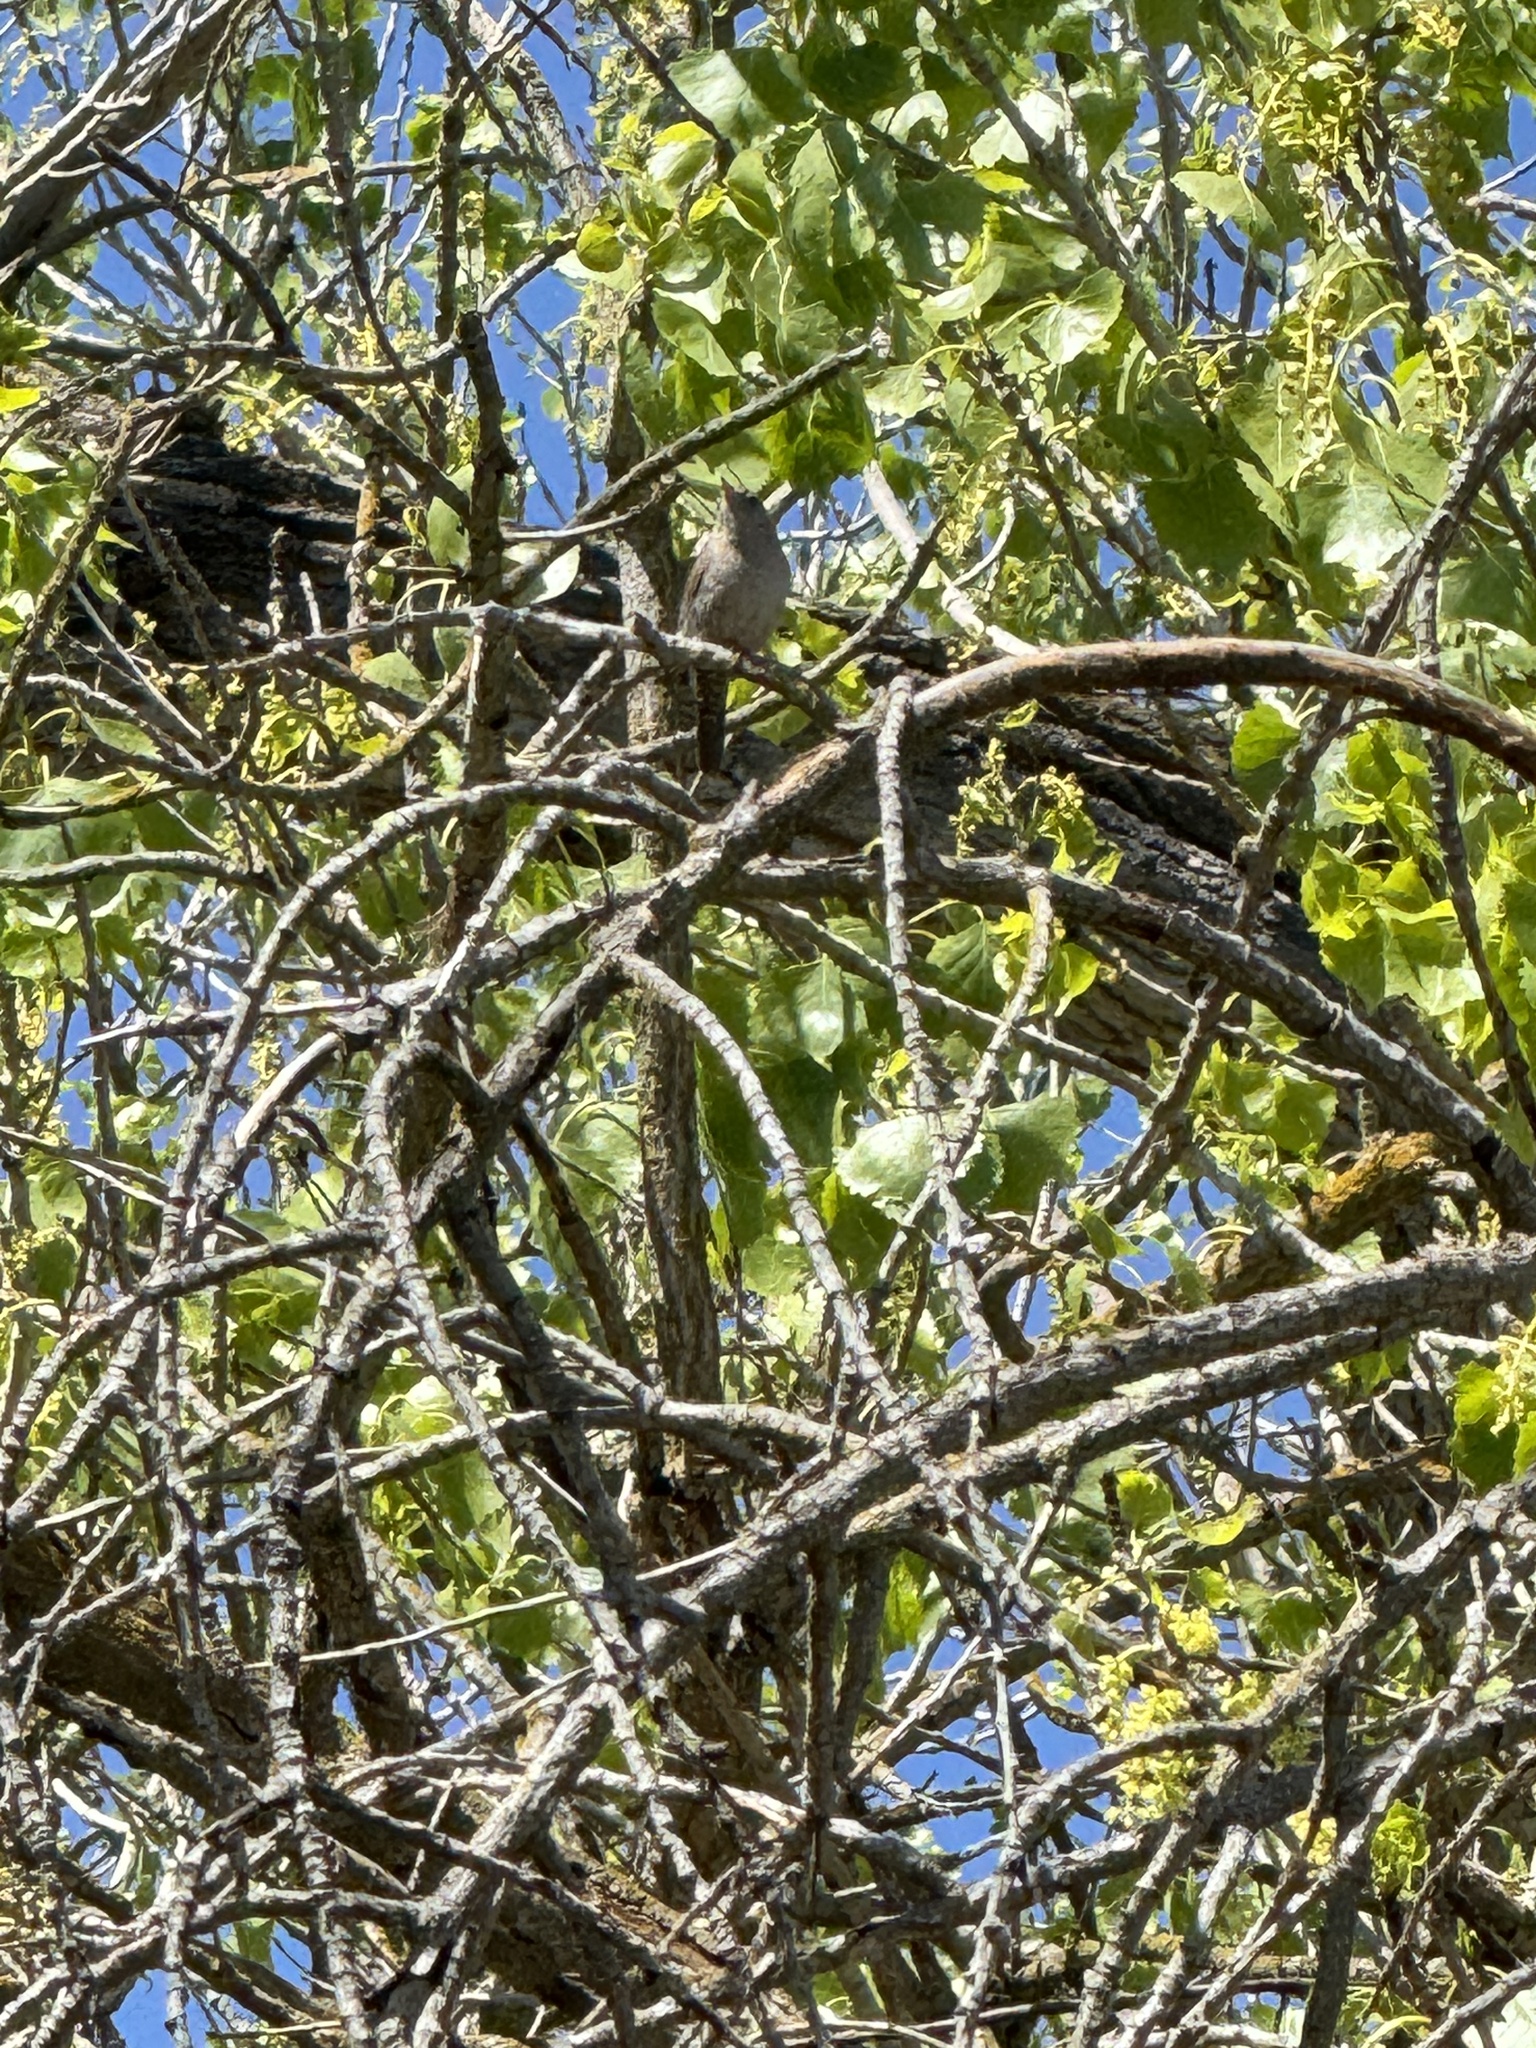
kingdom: Animalia
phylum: Chordata
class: Aves
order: Passeriformes
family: Troglodytidae
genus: Troglodytes
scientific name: Troglodytes aedon
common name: House wren
